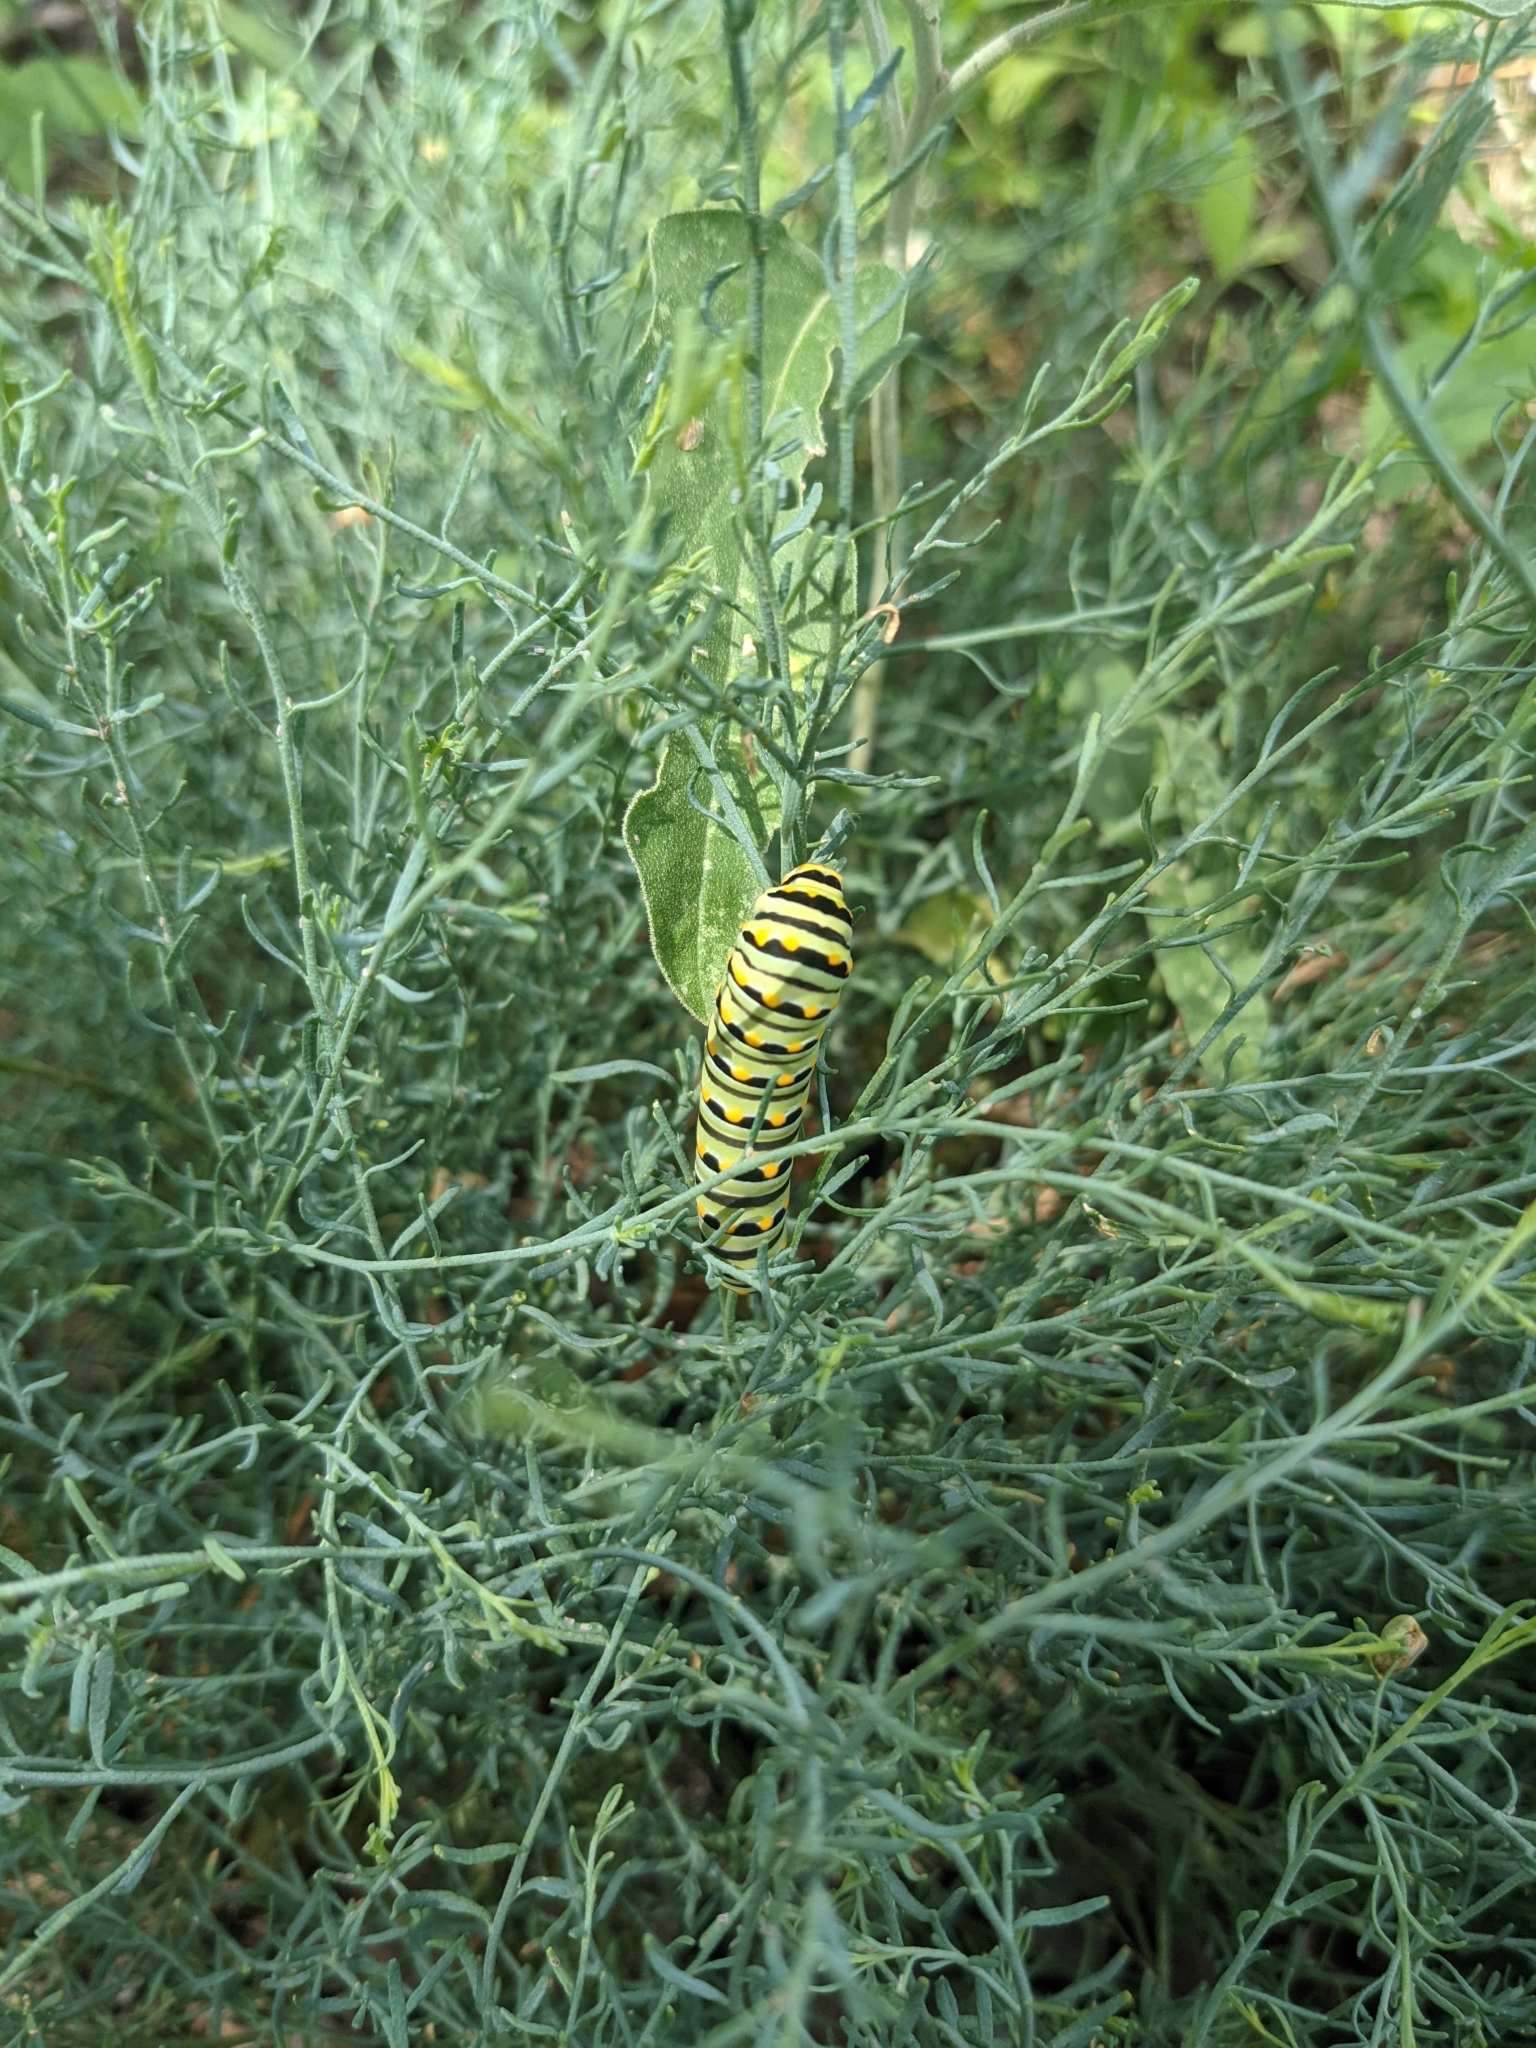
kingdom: Animalia
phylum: Arthropoda
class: Insecta
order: Lepidoptera
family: Papilionidae
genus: Papilio
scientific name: Papilio polyxenes
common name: Black swallowtail
